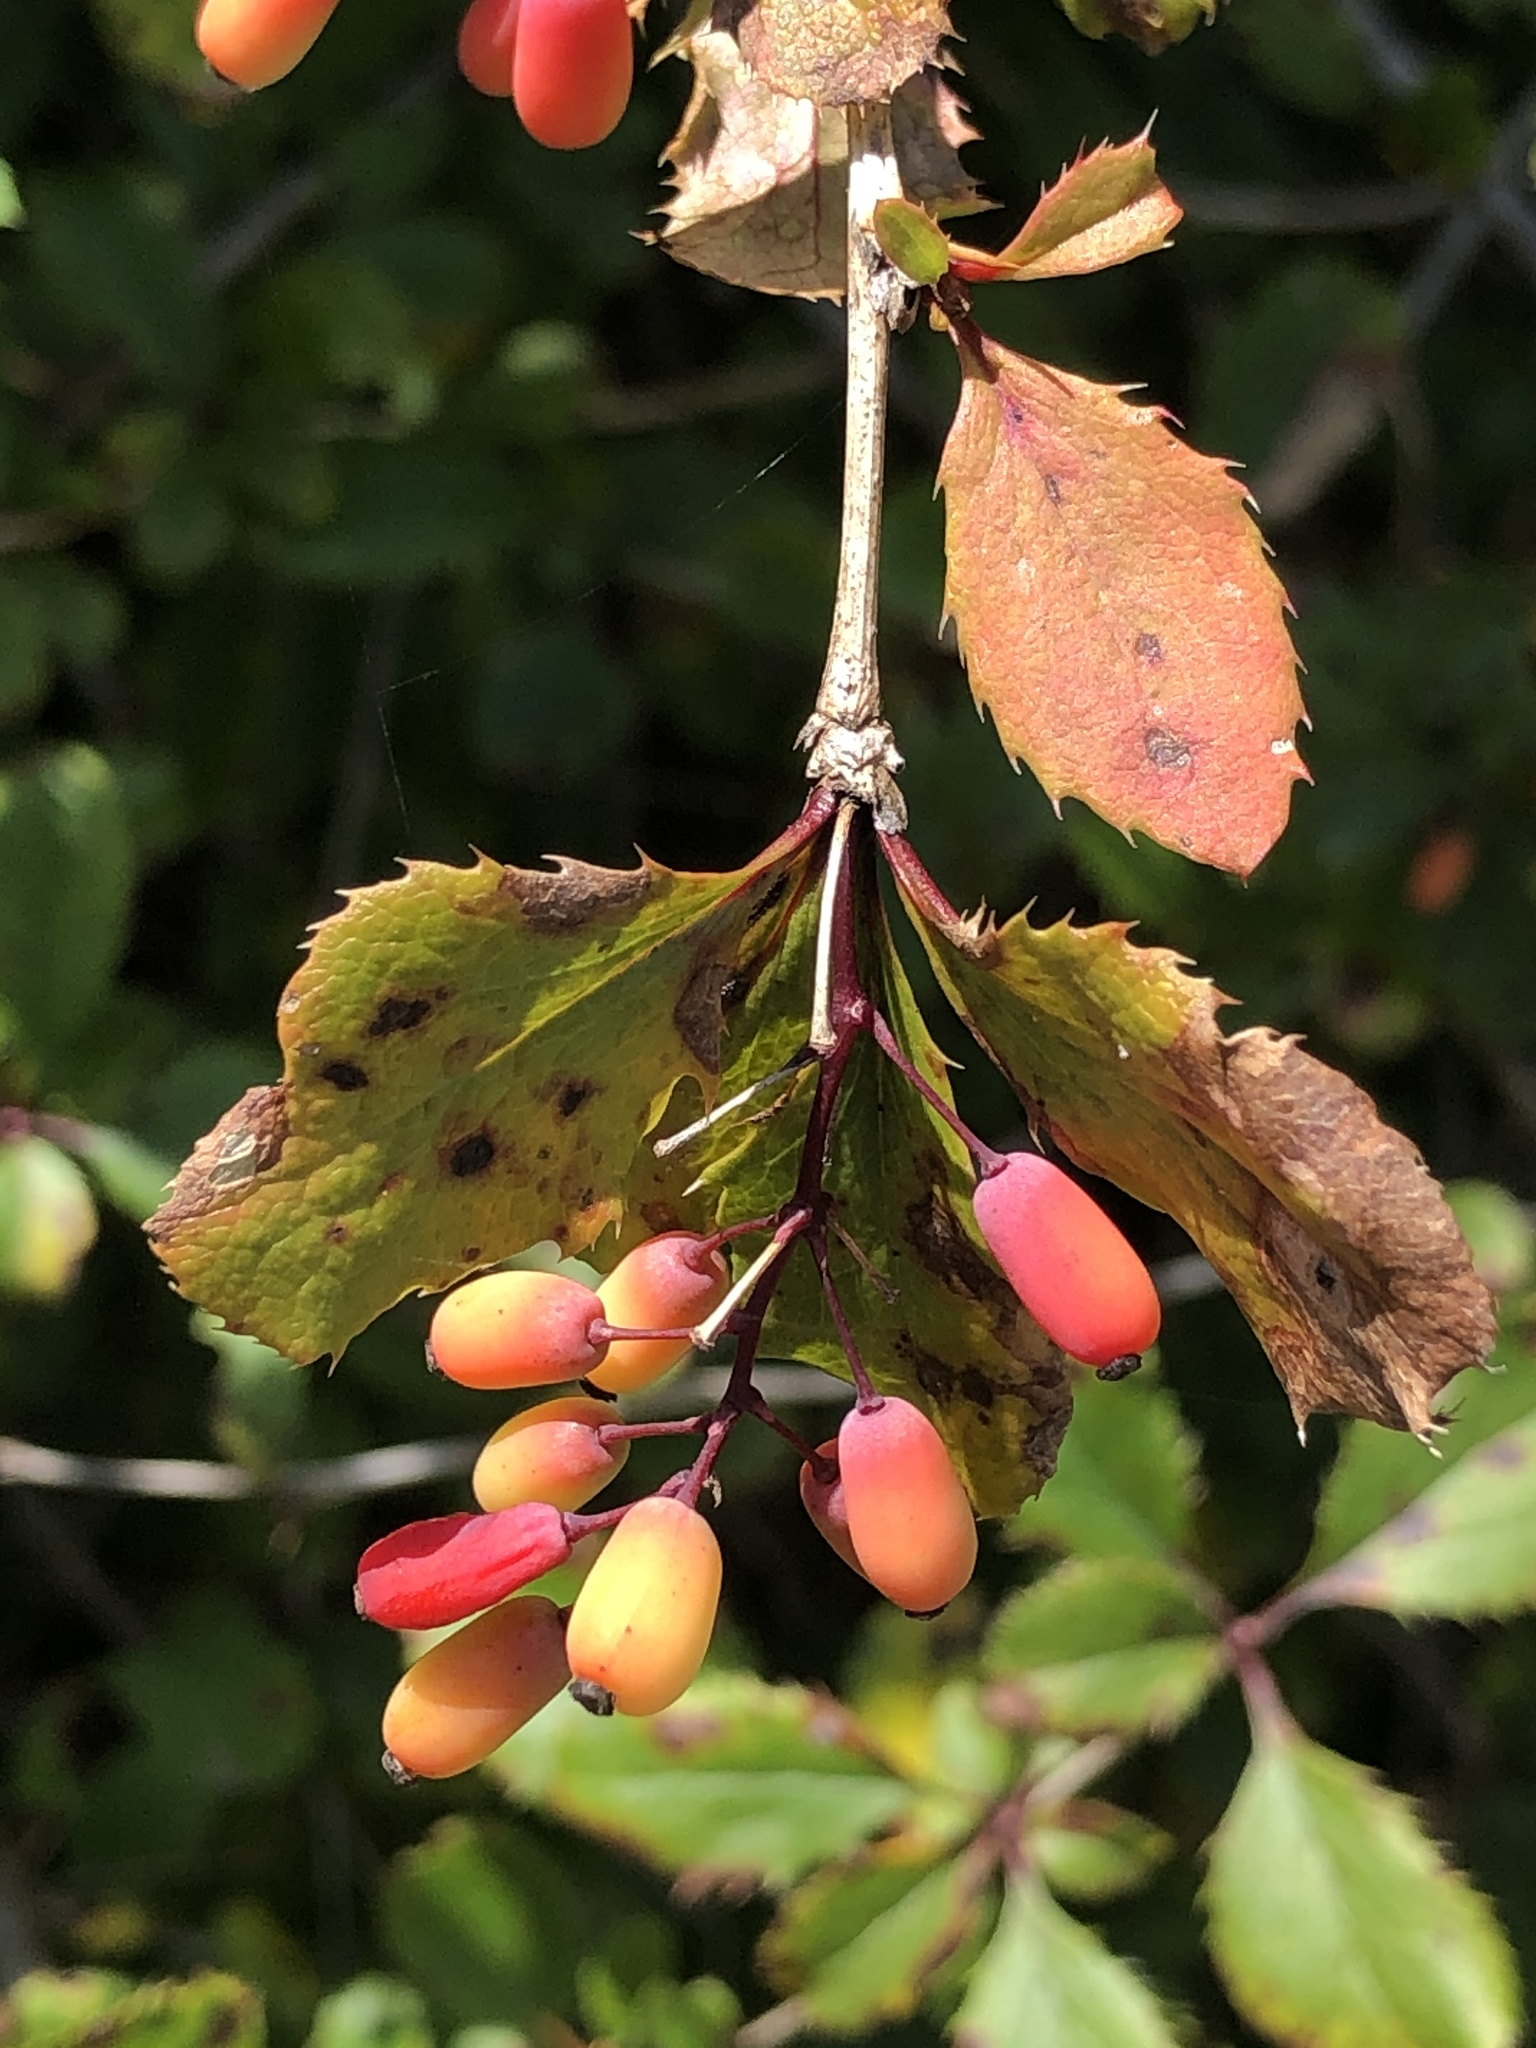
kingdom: Plantae
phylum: Tracheophyta
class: Magnoliopsida
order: Ranunculales
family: Berberidaceae
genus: Berberis
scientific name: Berberis vulgaris
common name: Barberry
